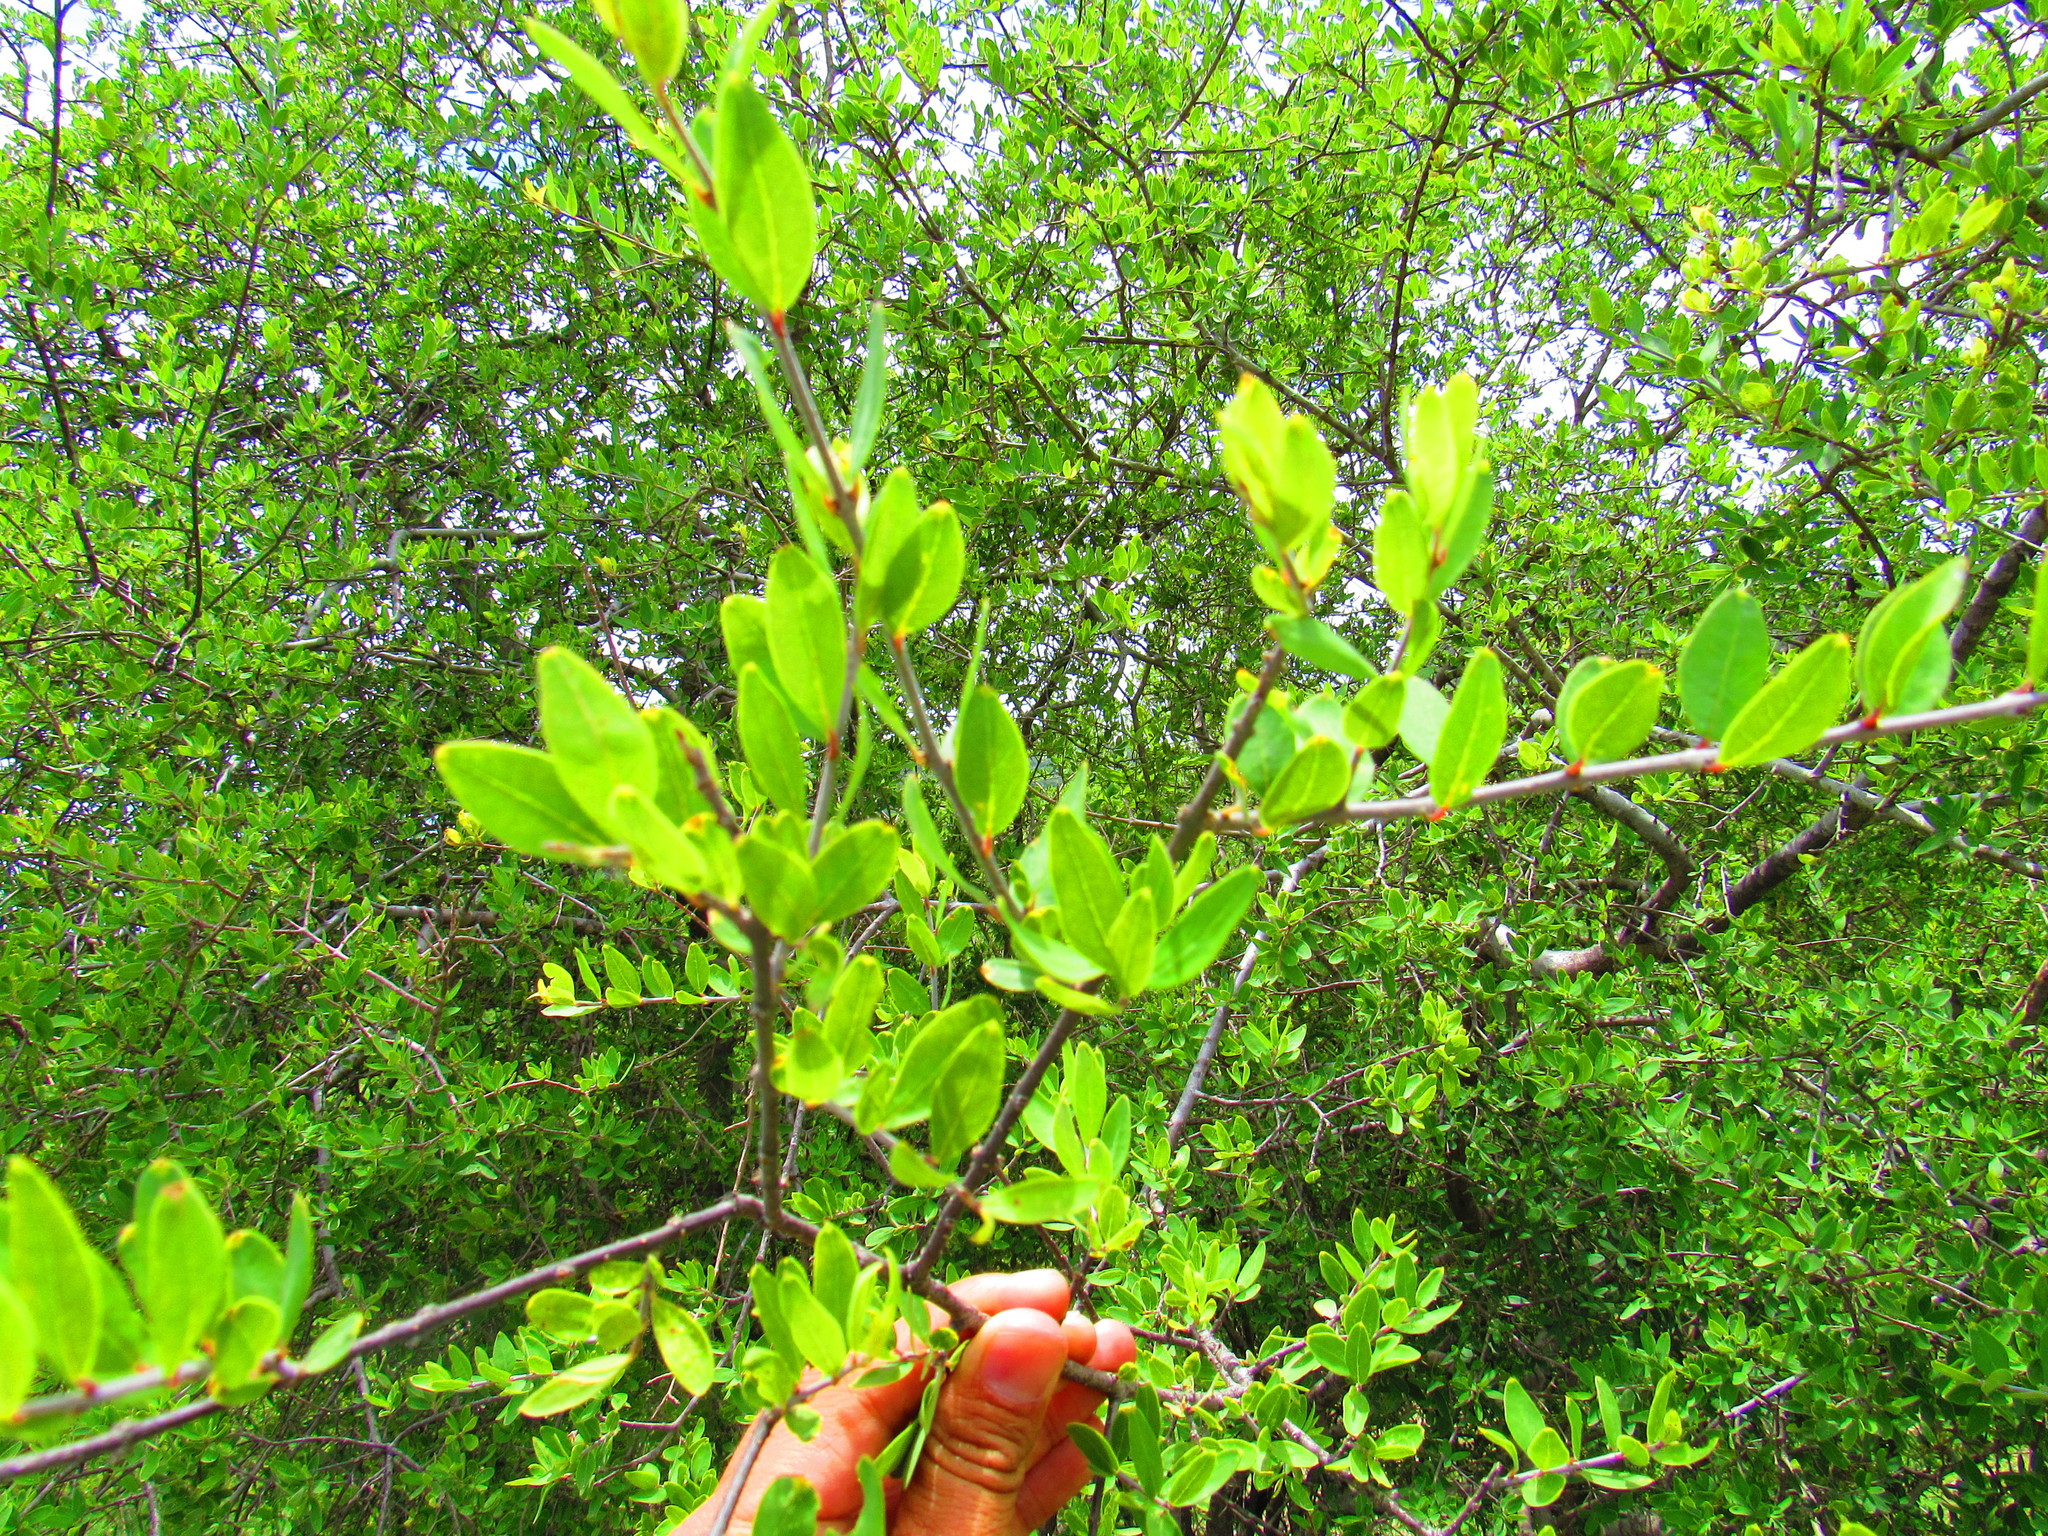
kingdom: Plantae
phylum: Tracheophyta
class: Magnoliopsida
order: Lamiales
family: Oleaceae
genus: Forestiera
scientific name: Forestiera durangensis
